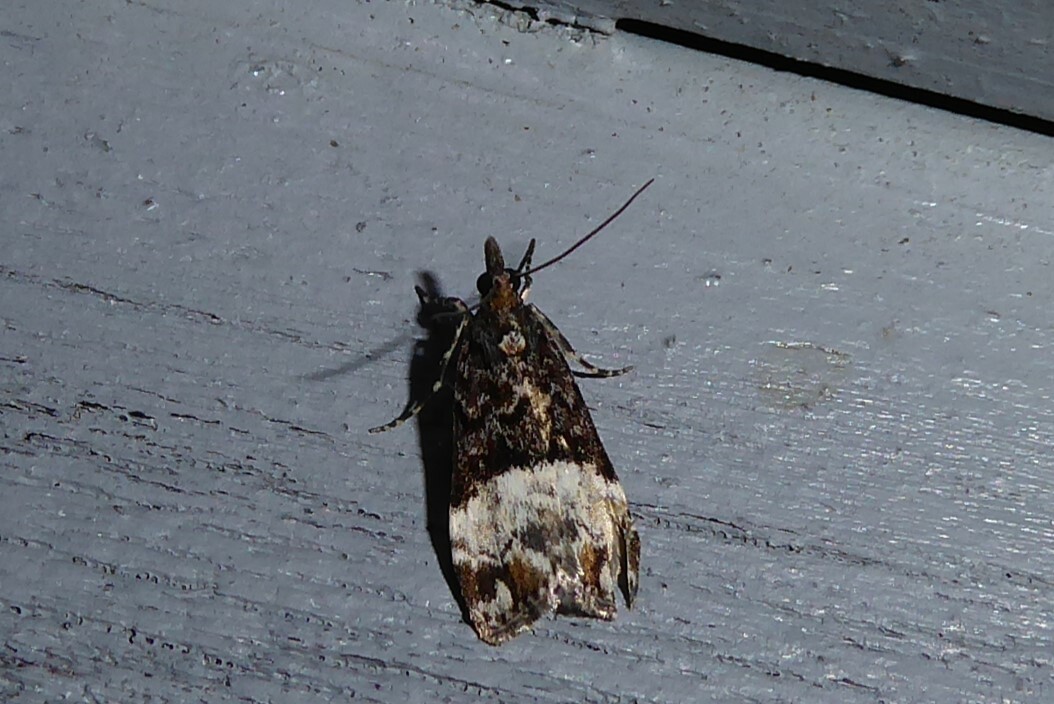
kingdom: Animalia
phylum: Arthropoda
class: Insecta
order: Lepidoptera
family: Crambidae
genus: Scoparia
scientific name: Scoparia minusculalis
